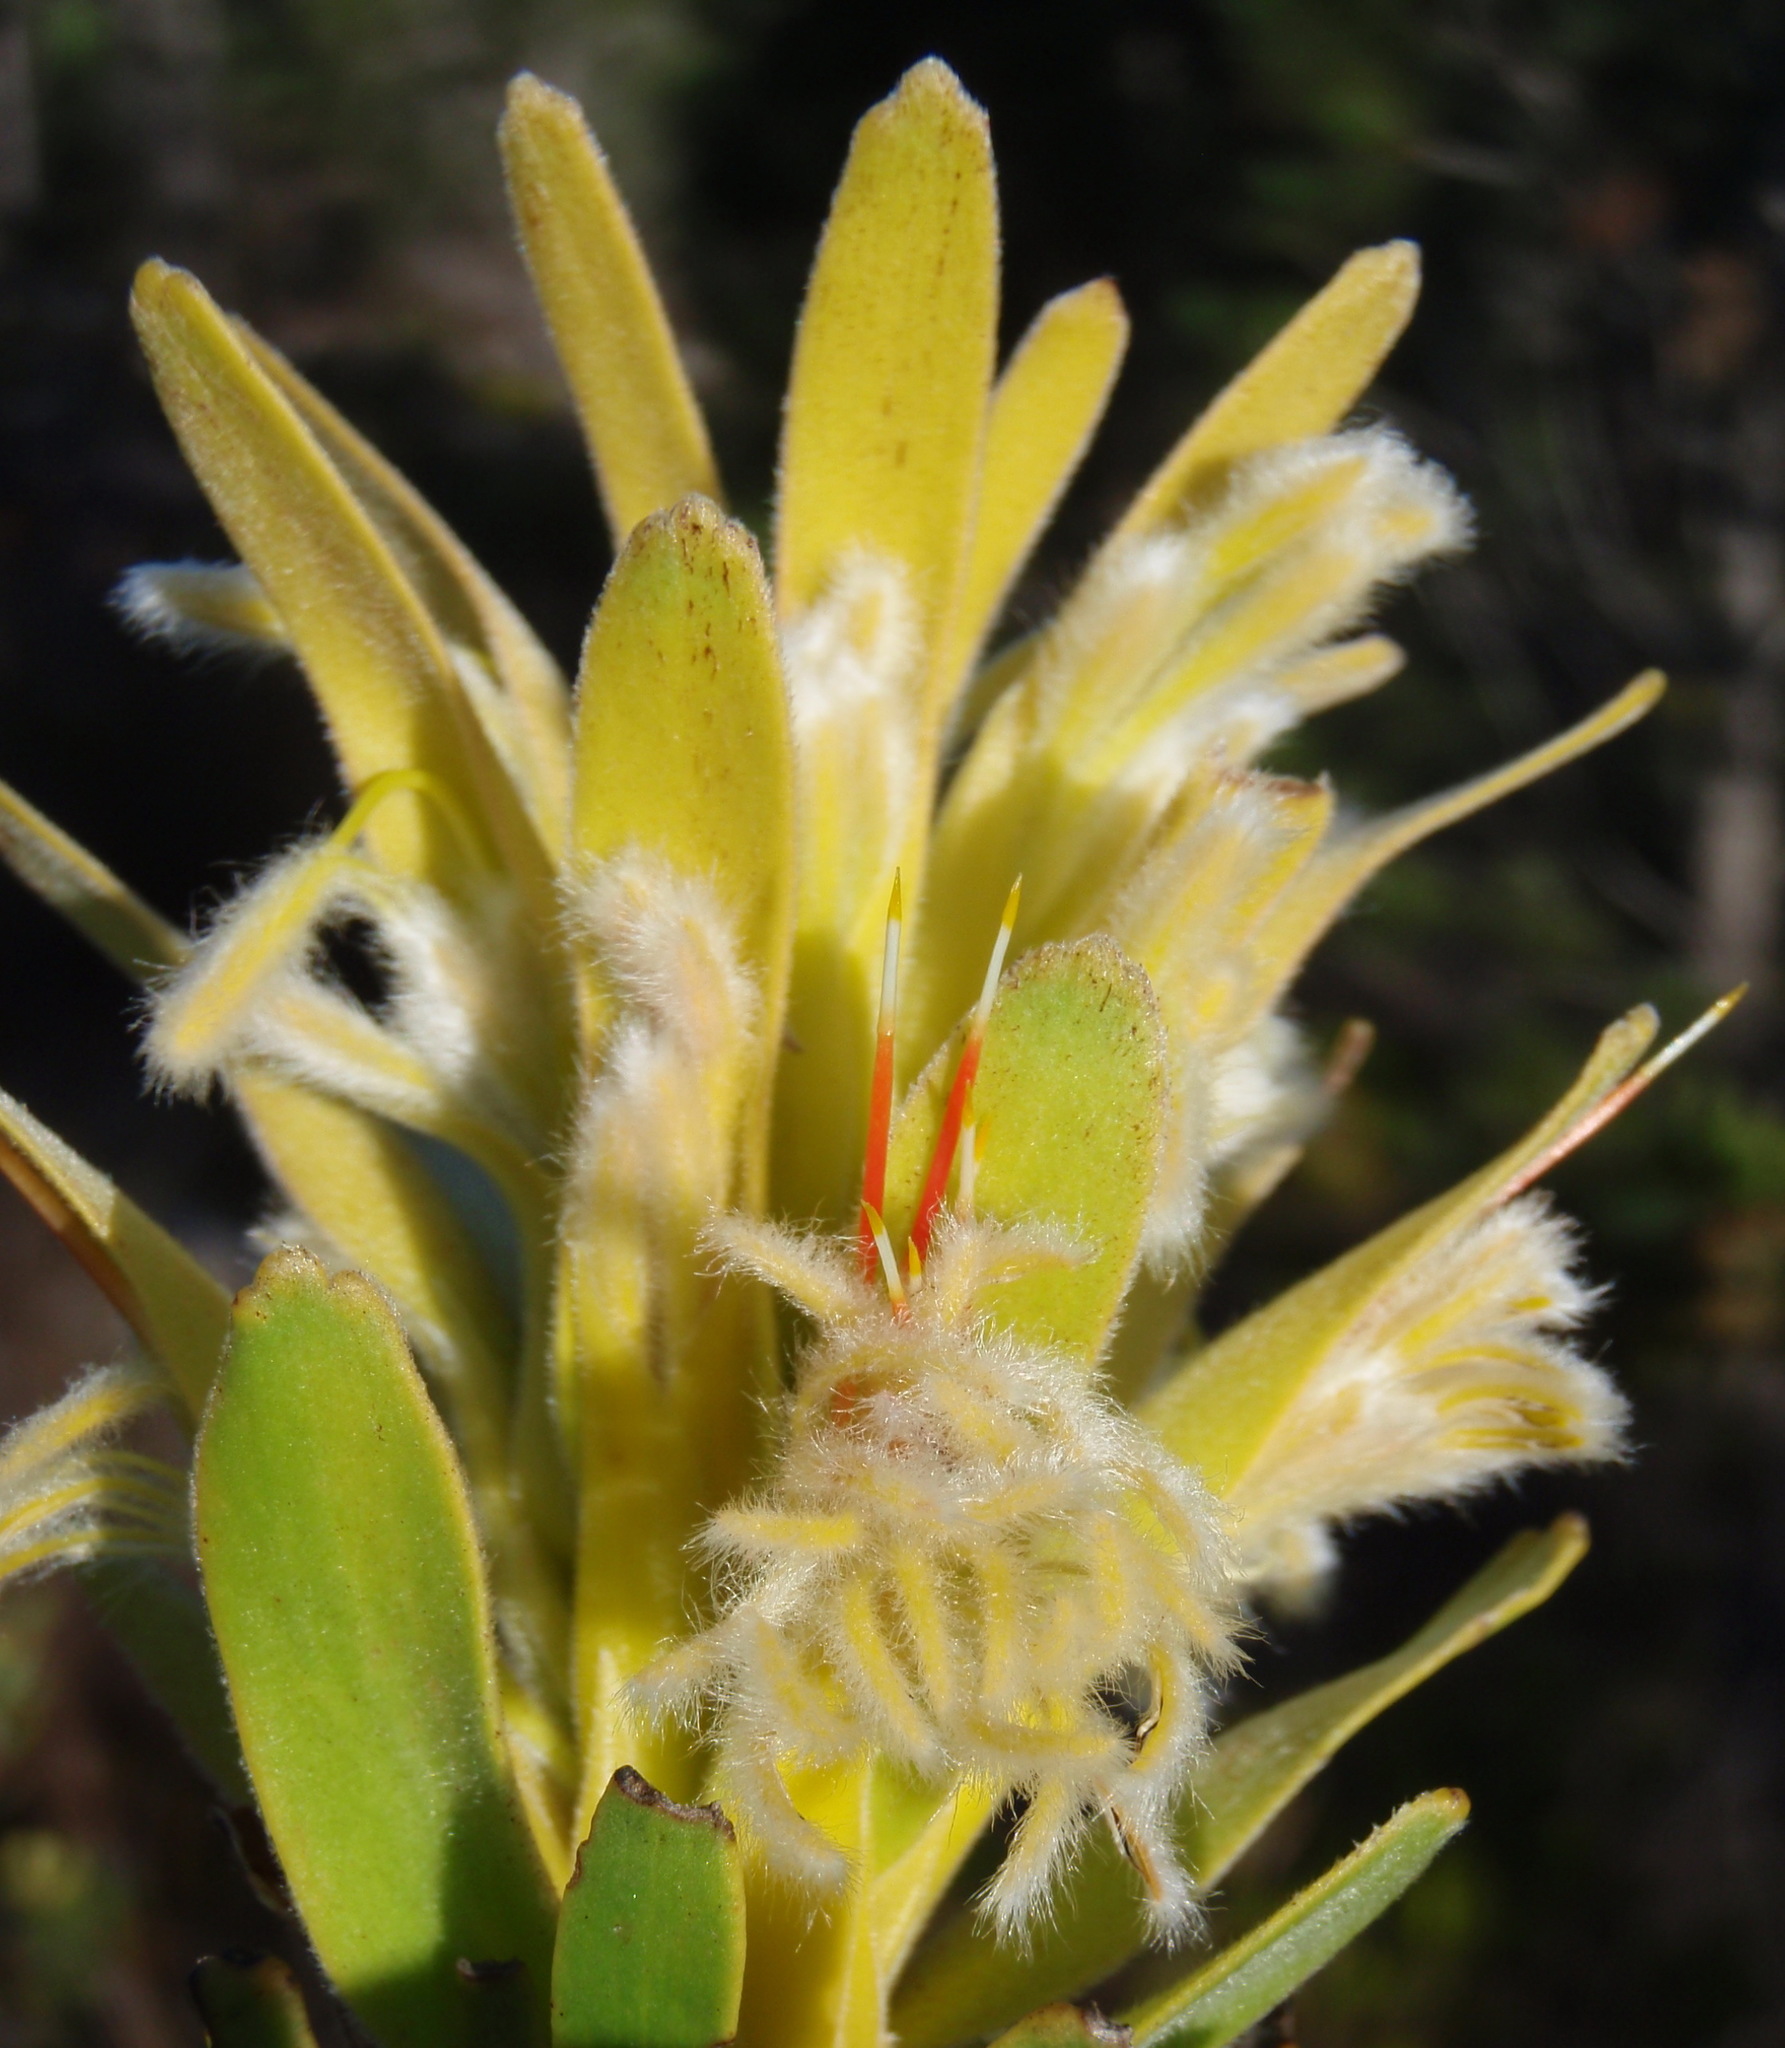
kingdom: Plantae
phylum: Tracheophyta
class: Magnoliopsida
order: Proteales
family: Proteaceae
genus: Mimetes
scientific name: Mimetes cucullatus
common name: Common pagoda
